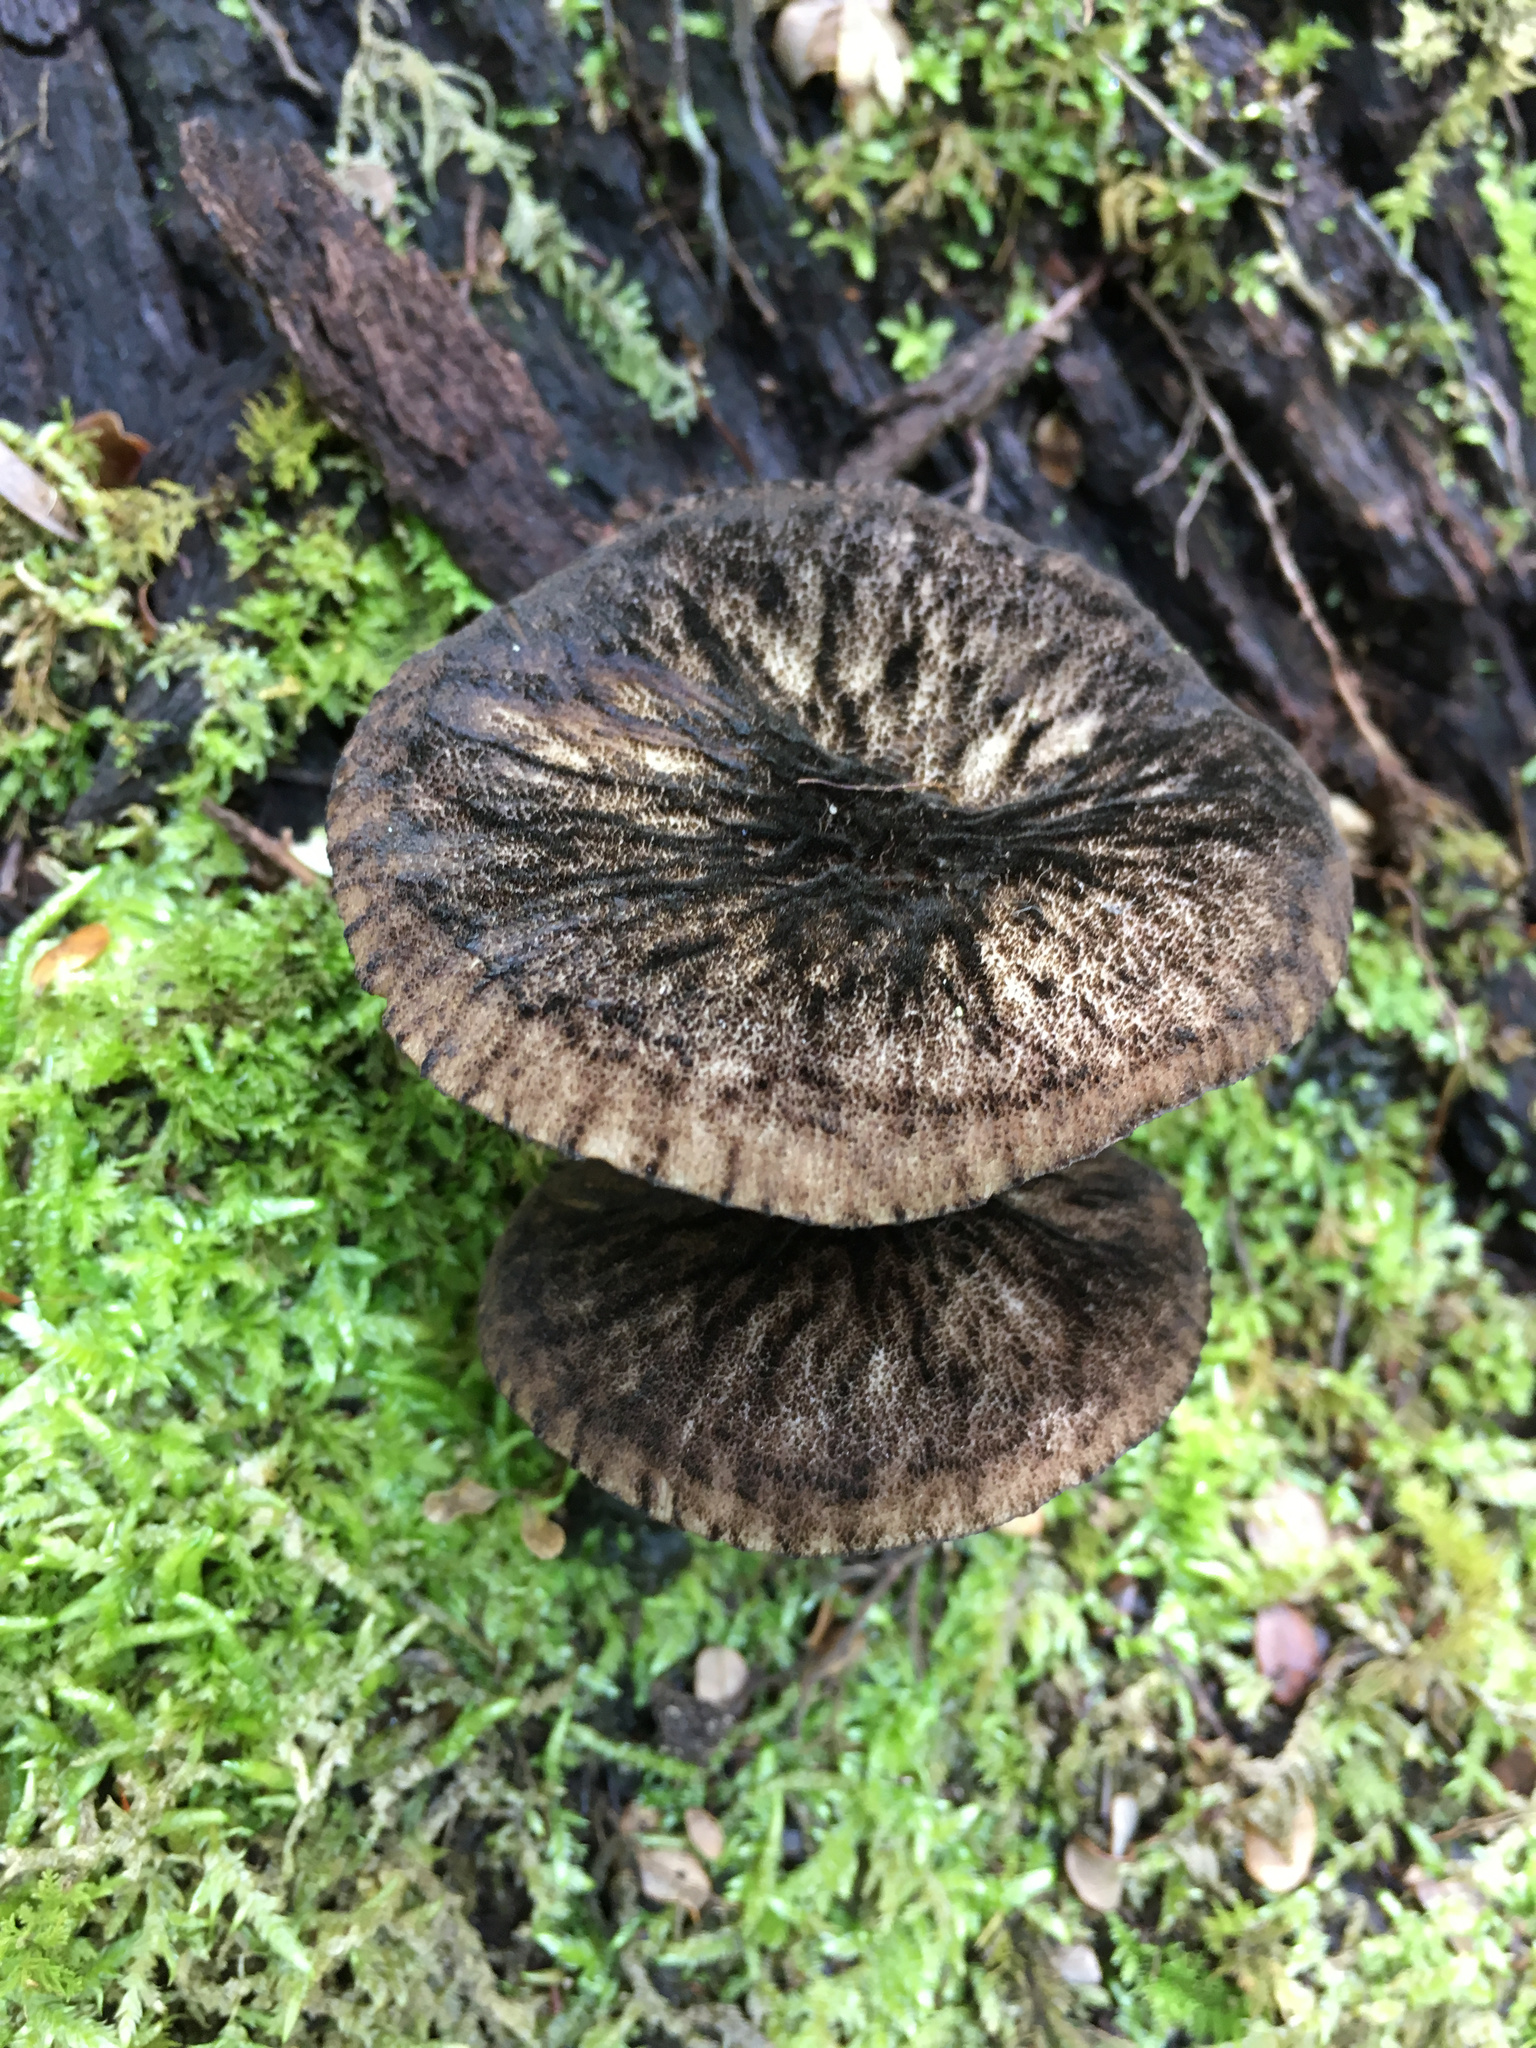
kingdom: Fungi
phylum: Basidiomycota
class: Agaricomycetes
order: Agaricales
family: Pluteaceae
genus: Pluteus
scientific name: Pluteus perroseus
